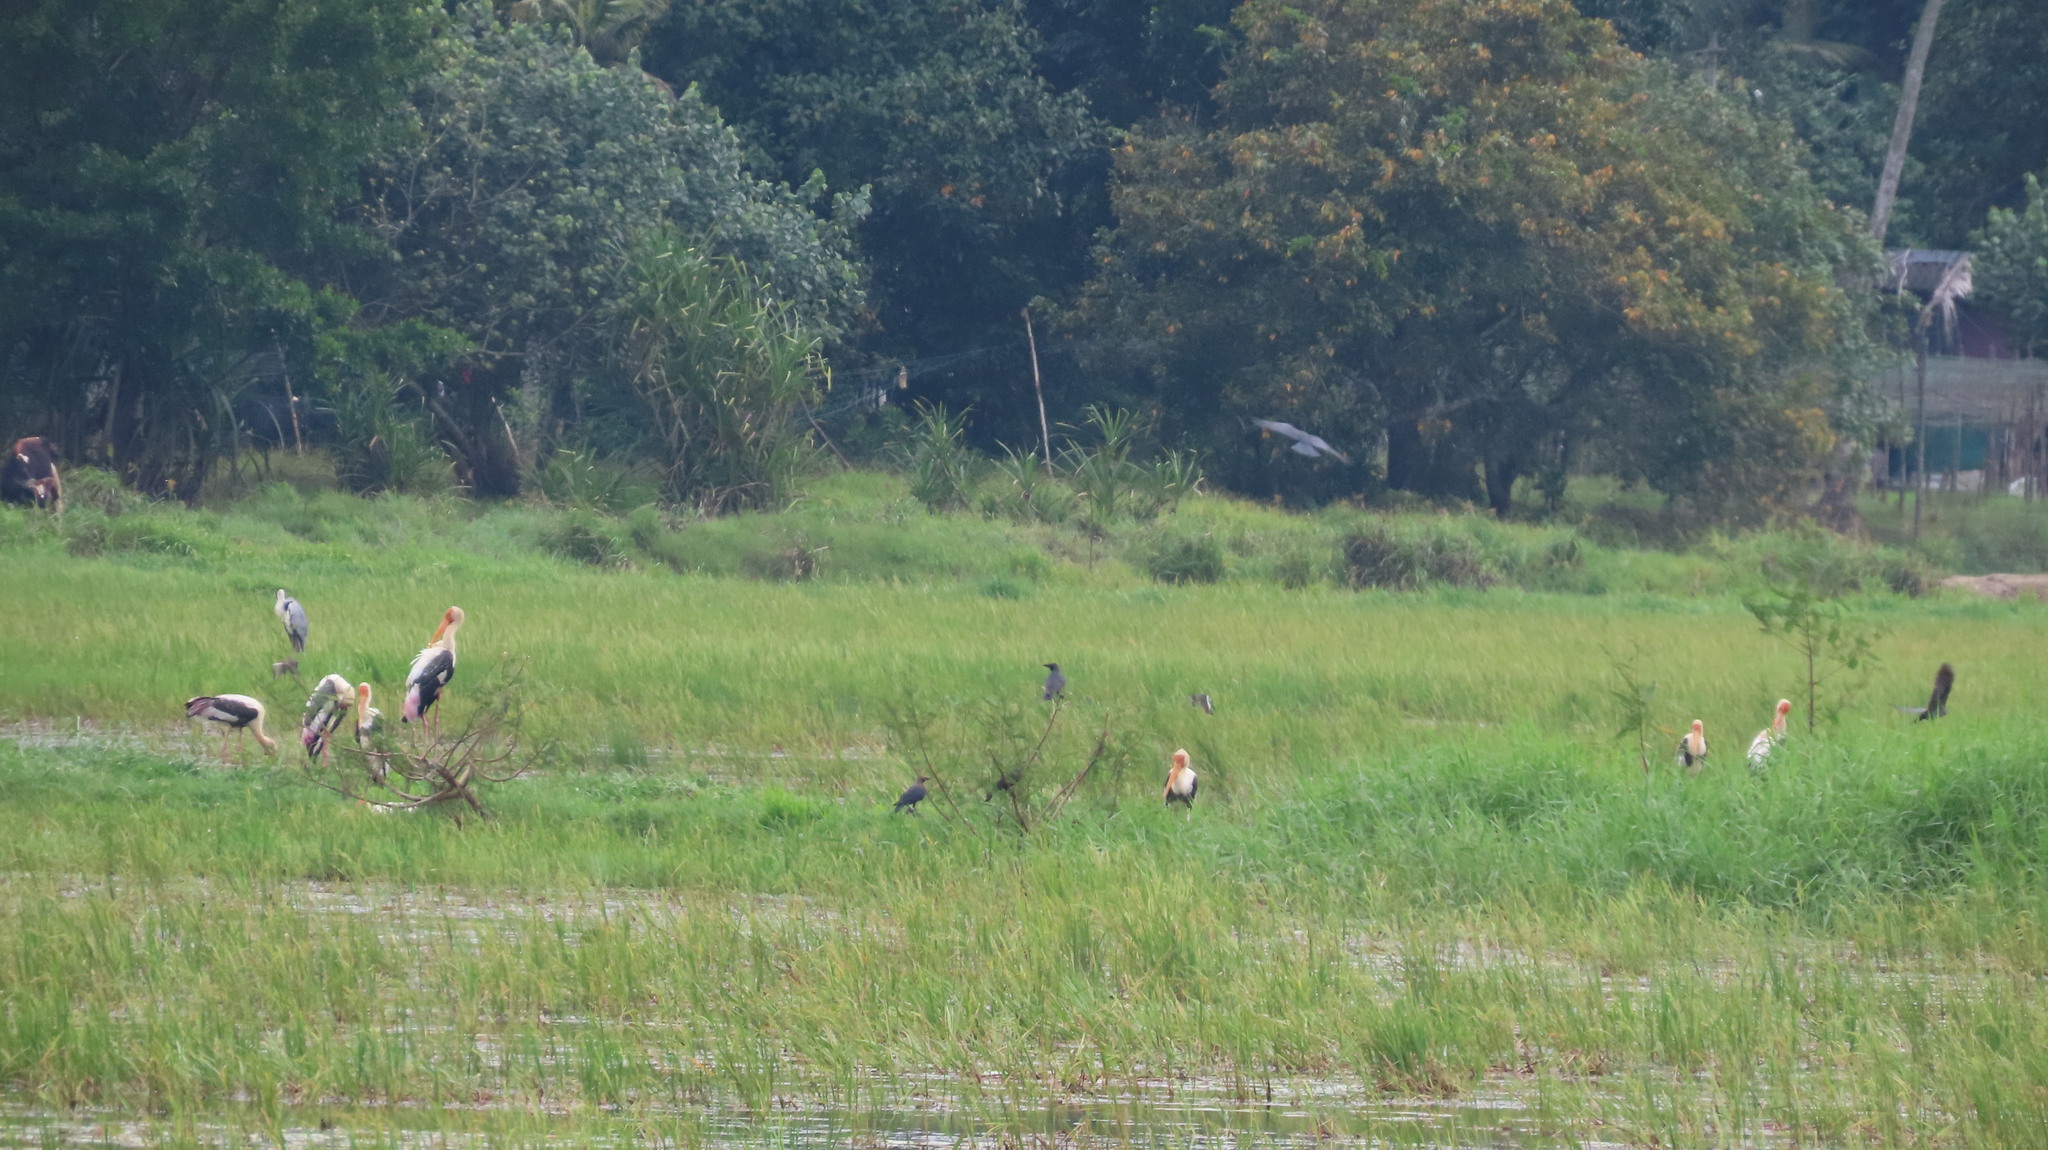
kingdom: Animalia
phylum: Chordata
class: Aves
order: Ciconiiformes
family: Ciconiidae
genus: Mycteria
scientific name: Mycteria leucocephala
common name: Painted stork
